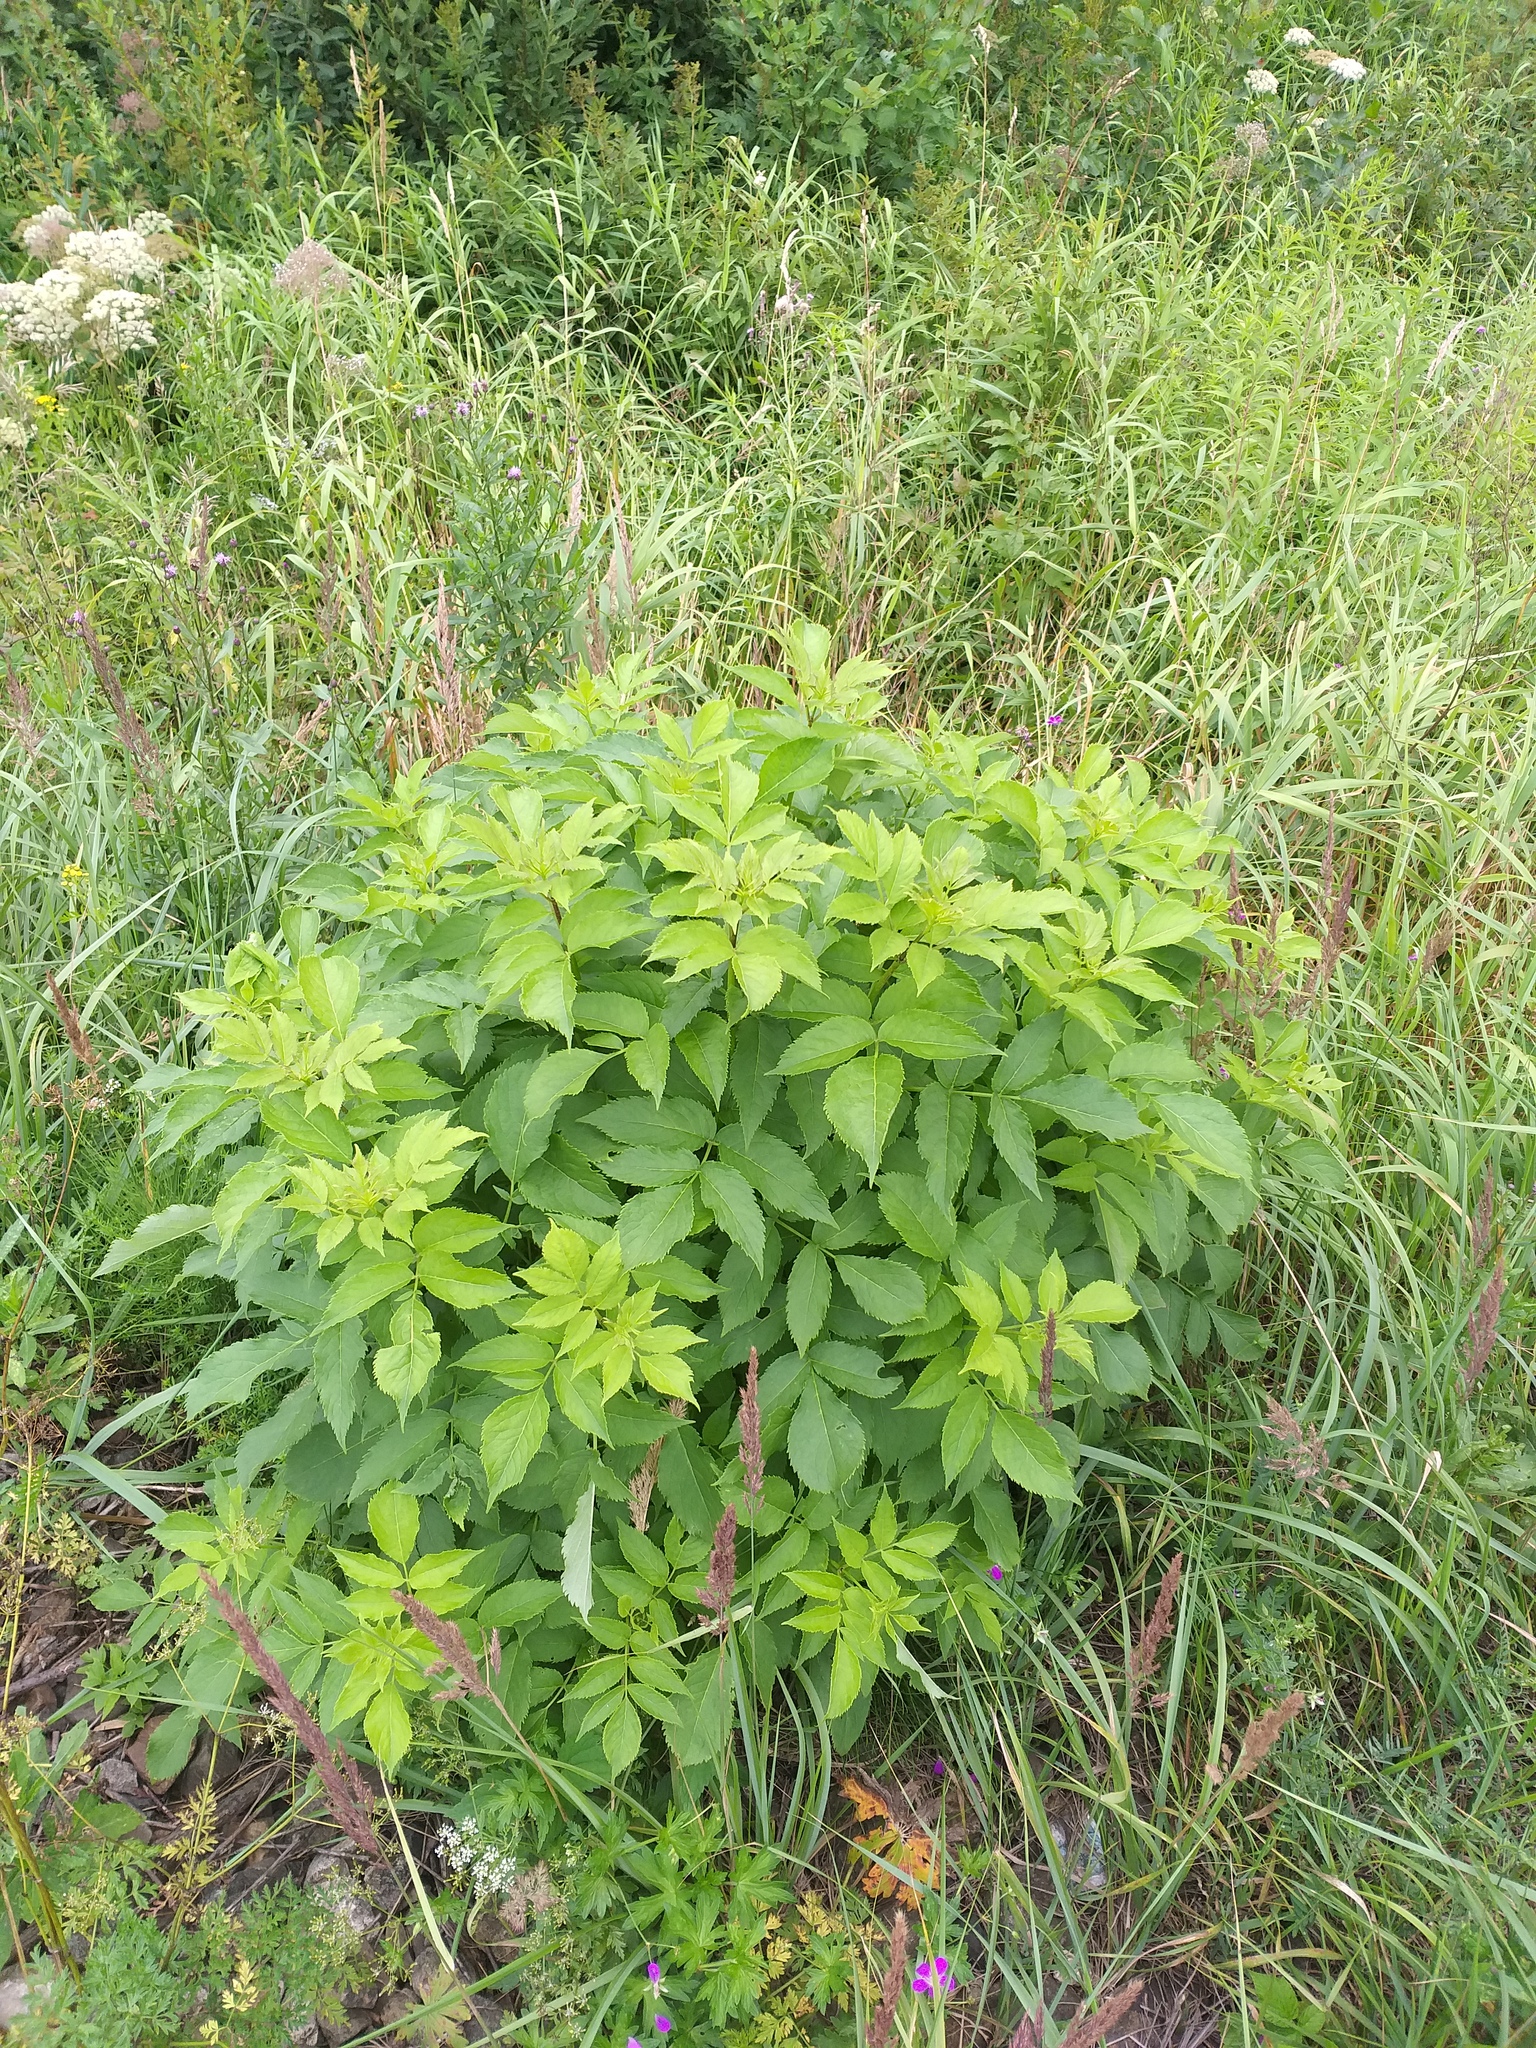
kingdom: Plantae
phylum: Tracheophyta
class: Magnoliopsida
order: Dipsacales
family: Viburnaceae
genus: Sambucus
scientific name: Sambucus racemosa
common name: Red-berried elder
